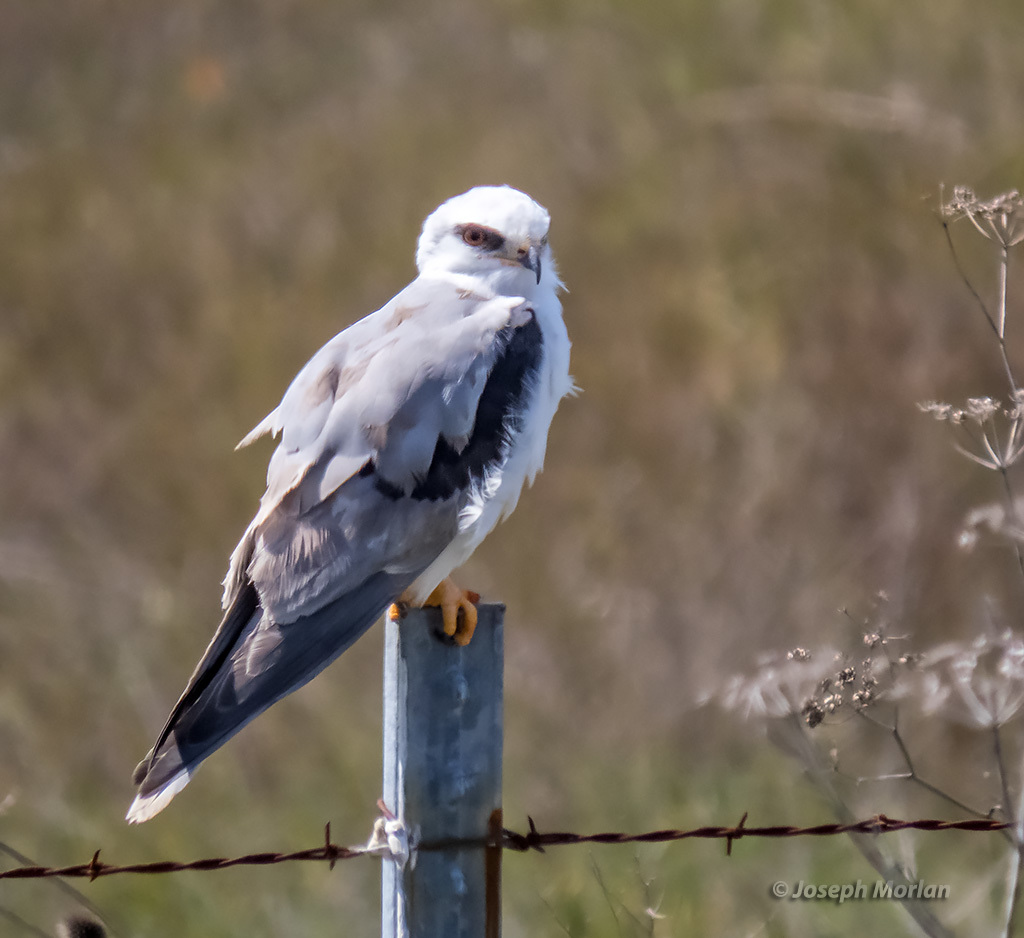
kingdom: Animalia
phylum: Chordata
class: Aves
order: Accipitriformes
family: Accipitridae
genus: Elanus
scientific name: Elanus leucurus
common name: White-tailed kite
